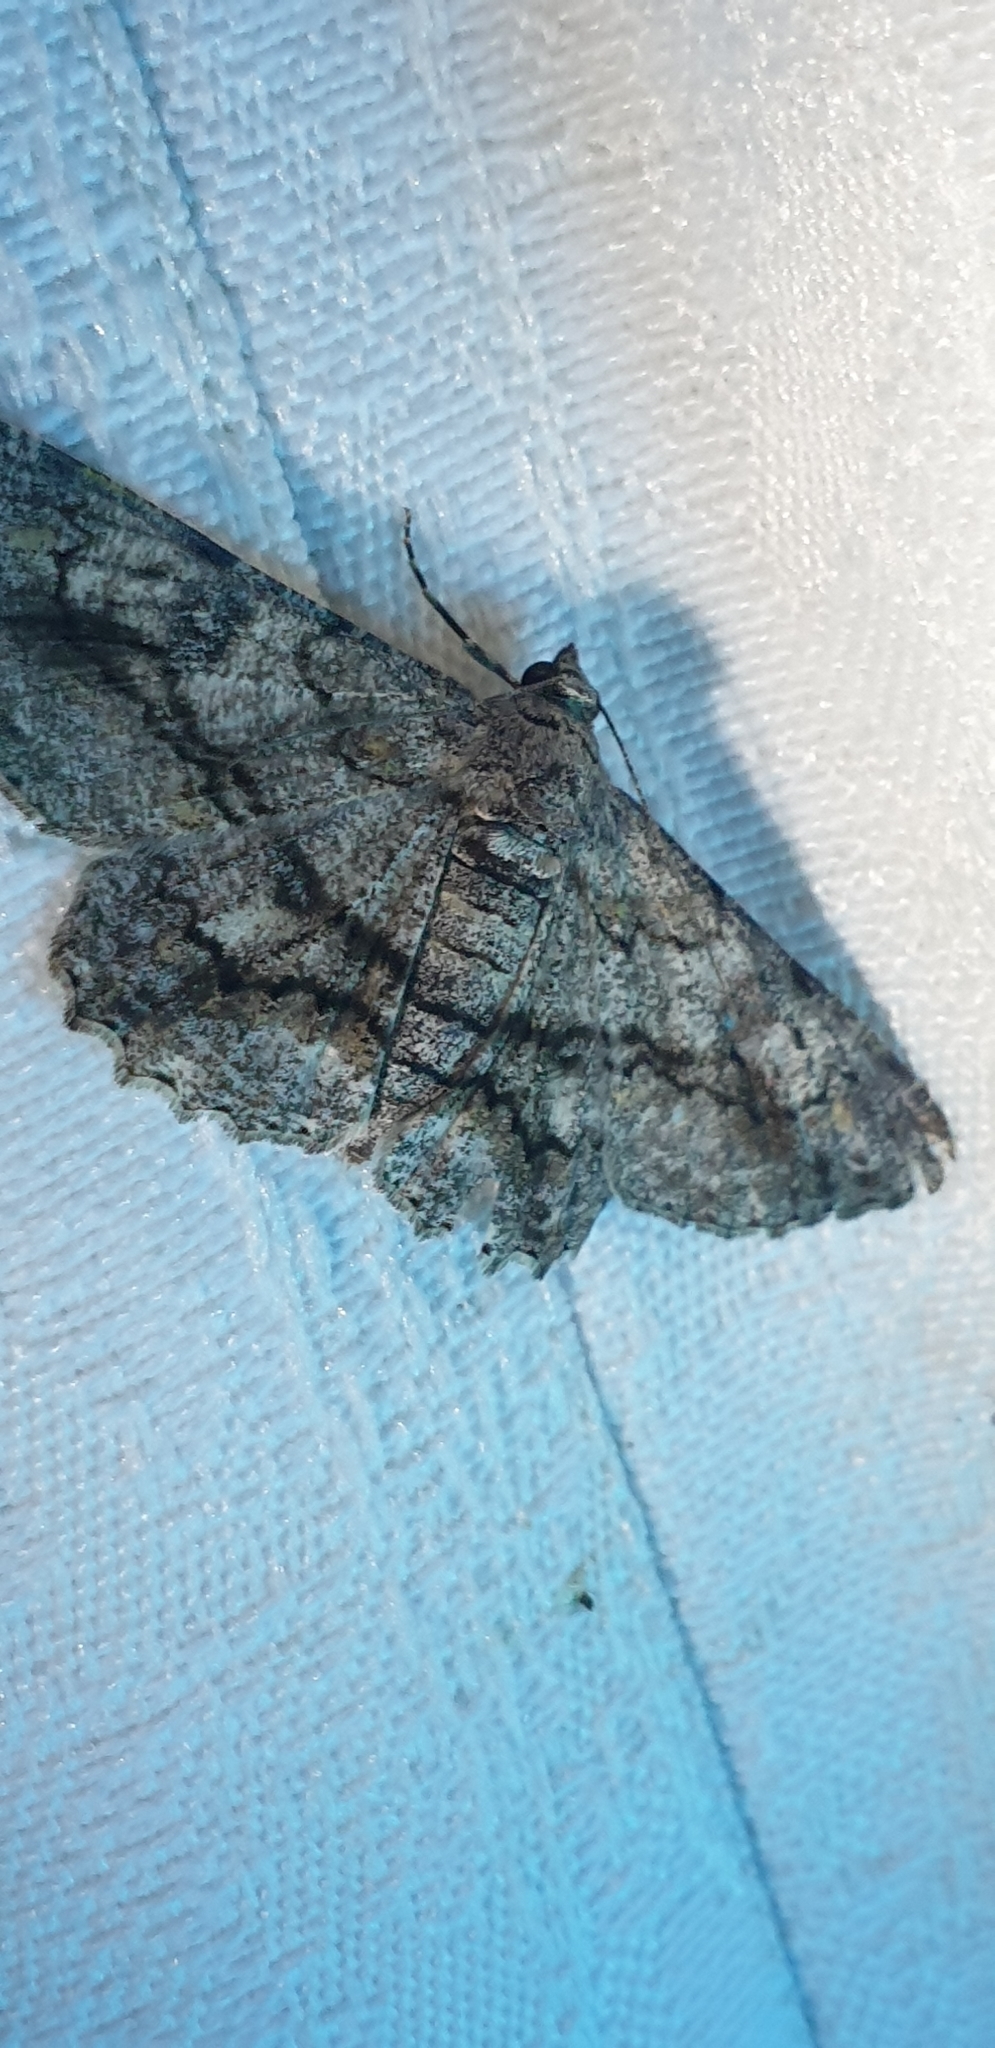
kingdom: Animalia
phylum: Arthropoda
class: Insecta
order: Lepidoptera
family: Geometridae
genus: Cleora
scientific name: Cleora injectaria
